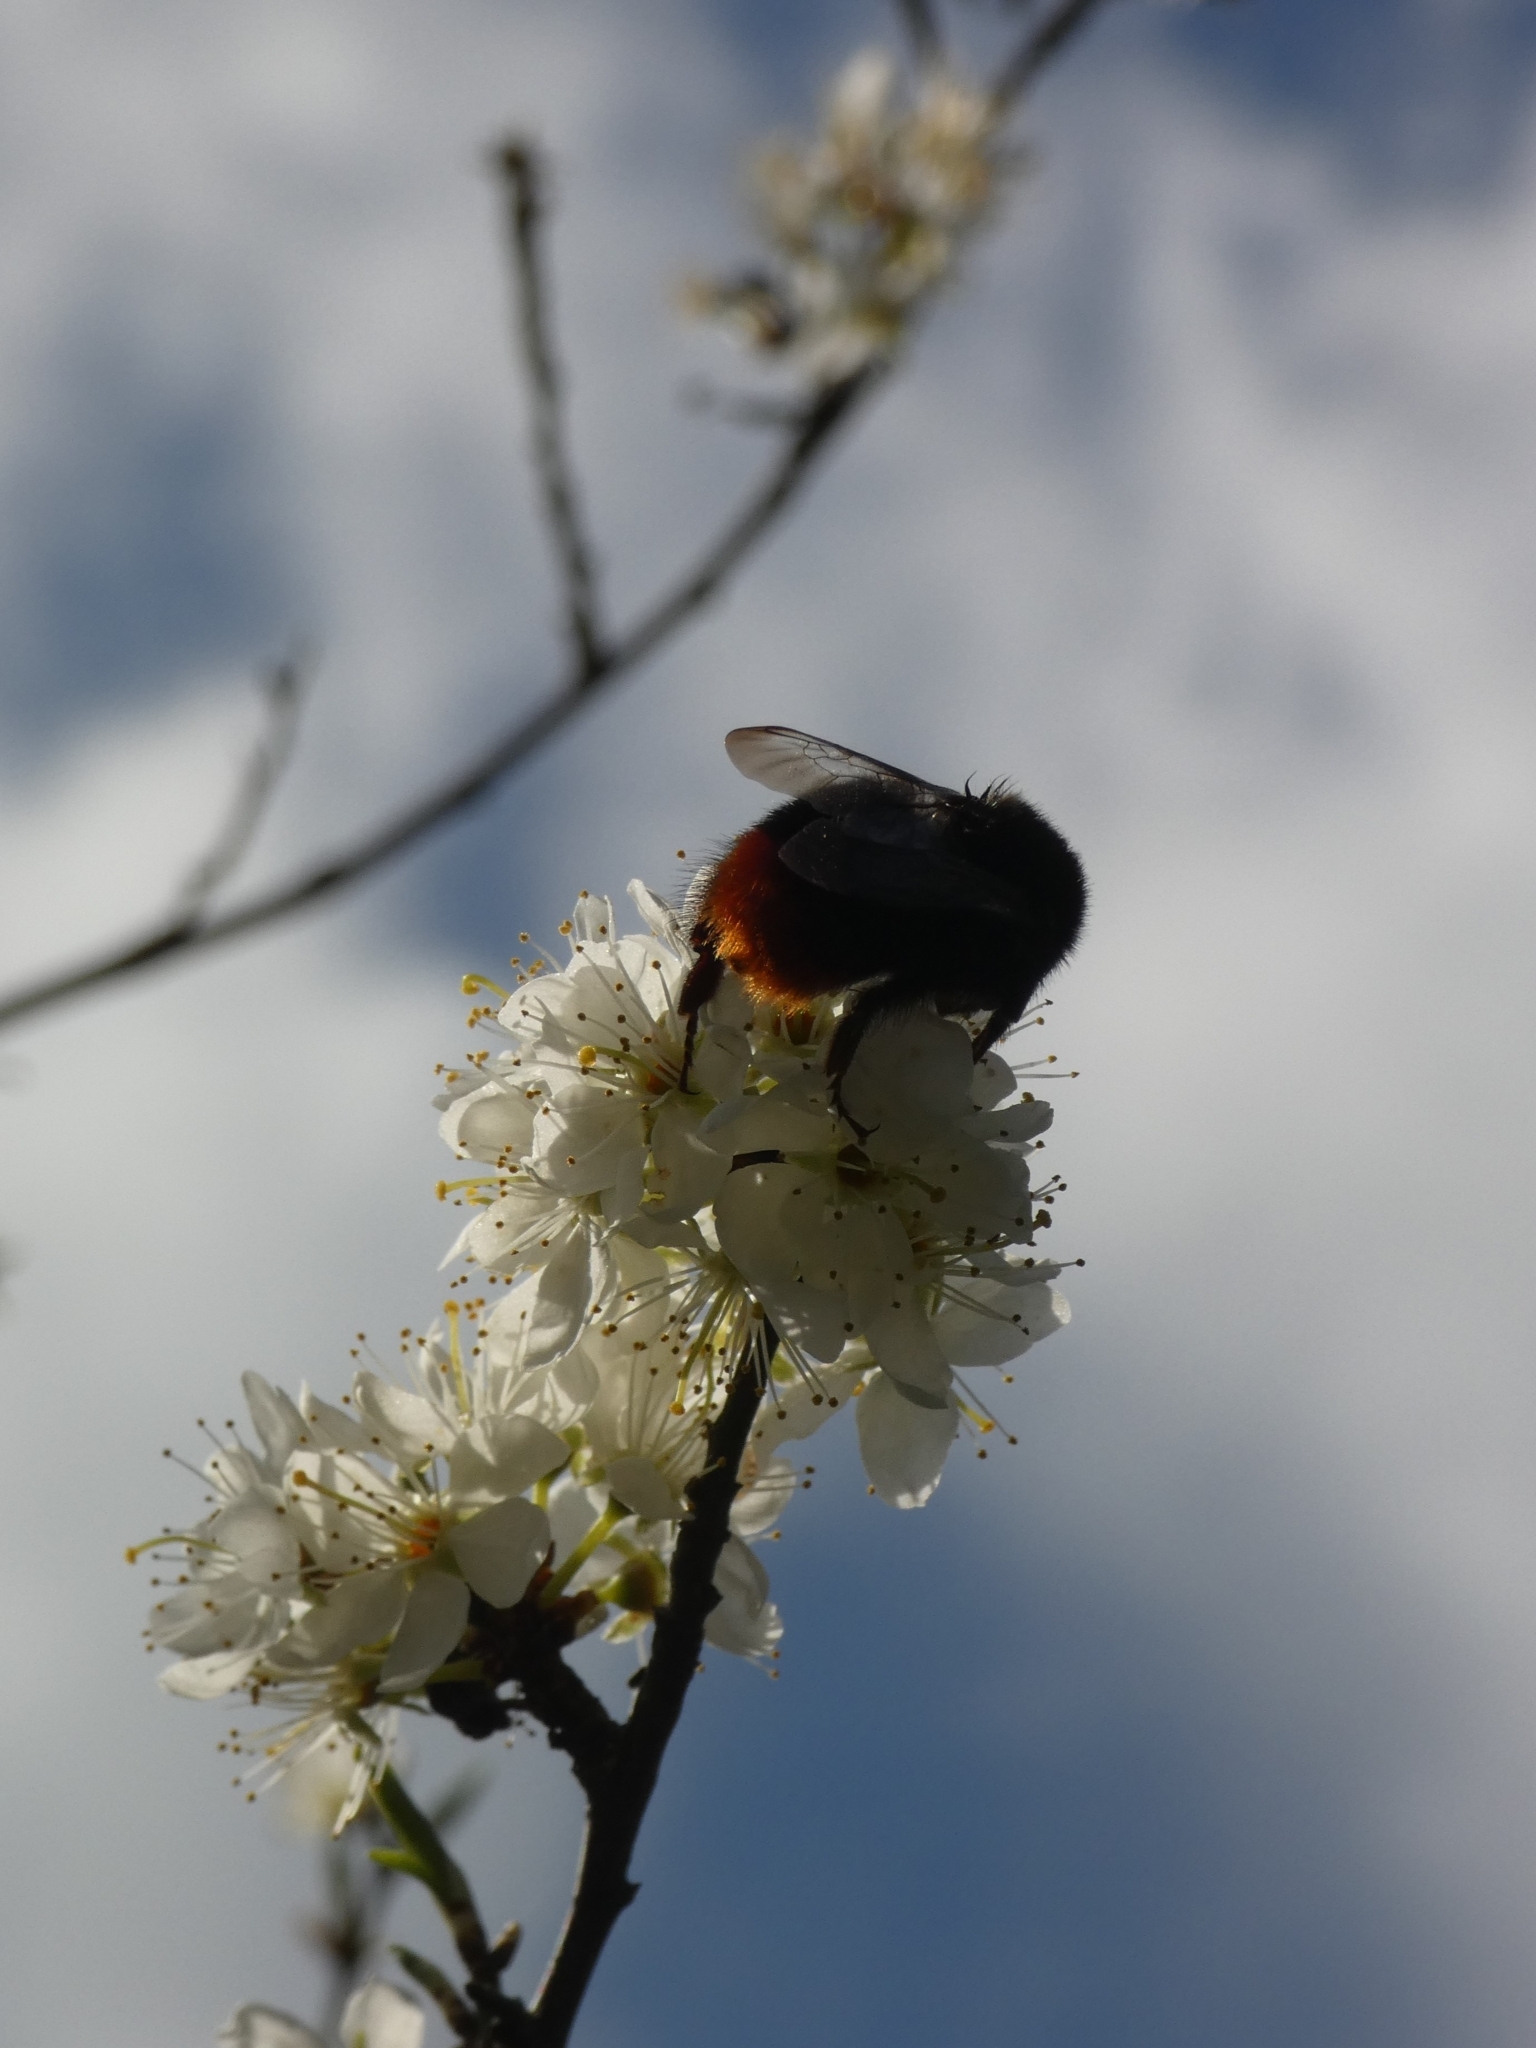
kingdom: Animalia
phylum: Arthropoda
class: Insecta
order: Hymenoptera
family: Apidae
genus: Bombus
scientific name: Bombus lapidarius
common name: Large red-tailed humble-bee
